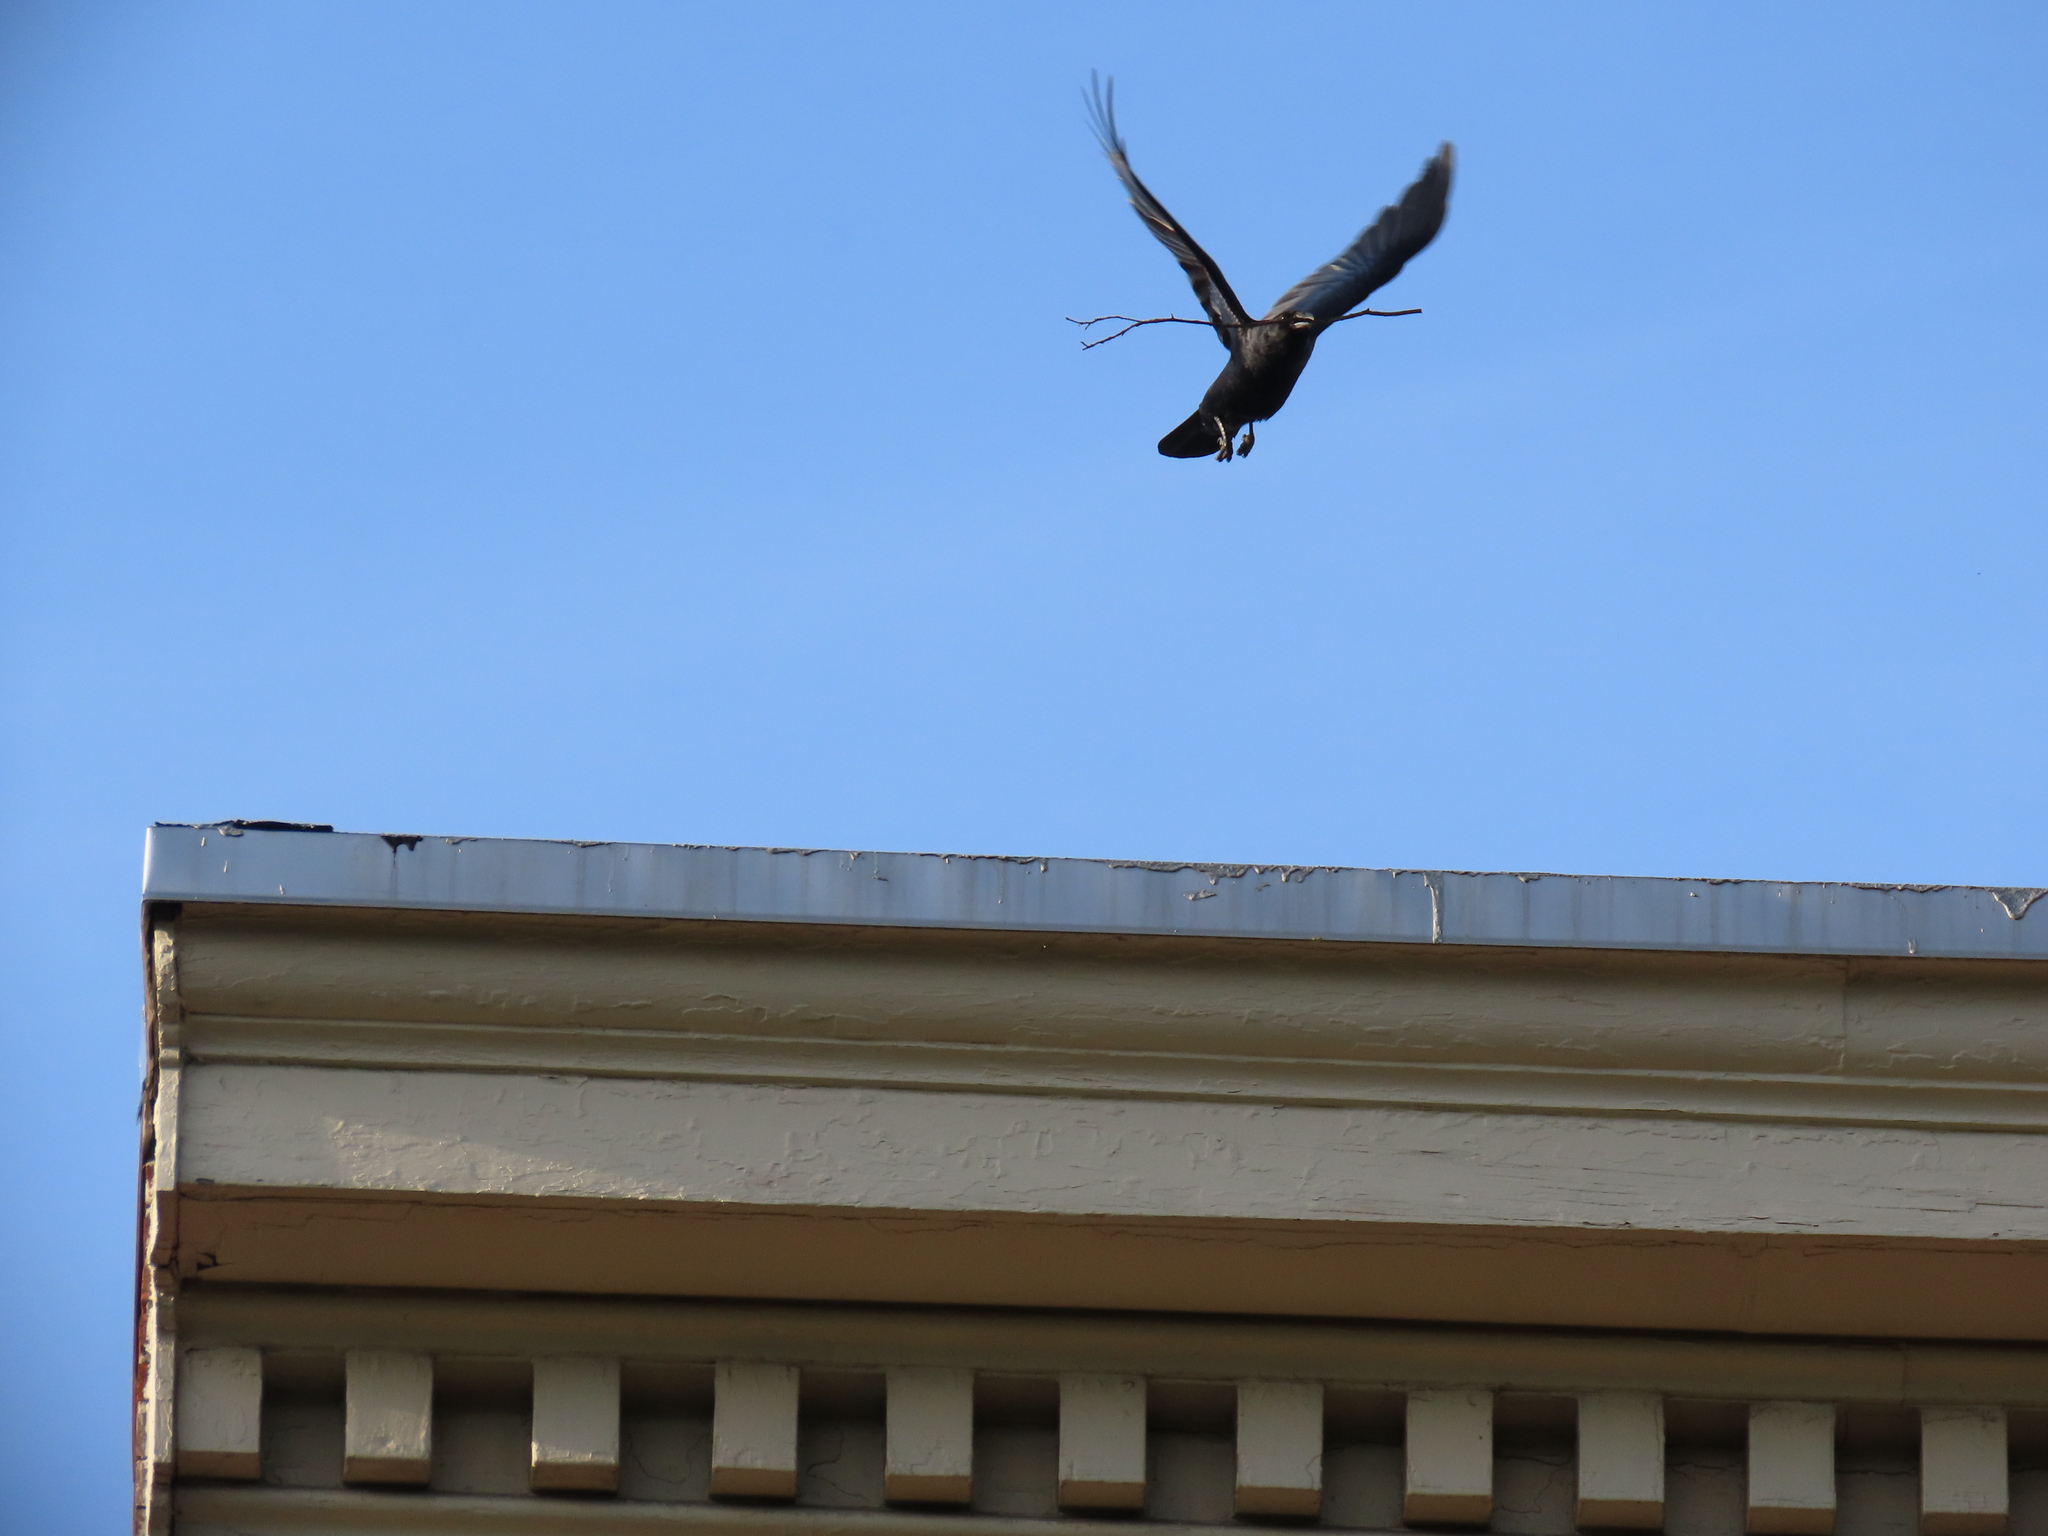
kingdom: Animalia
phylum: Chordata
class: Aves
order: Passeriformes
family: Corvidae
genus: Corvus
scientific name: Corvus ossifragus
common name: Fish crow
